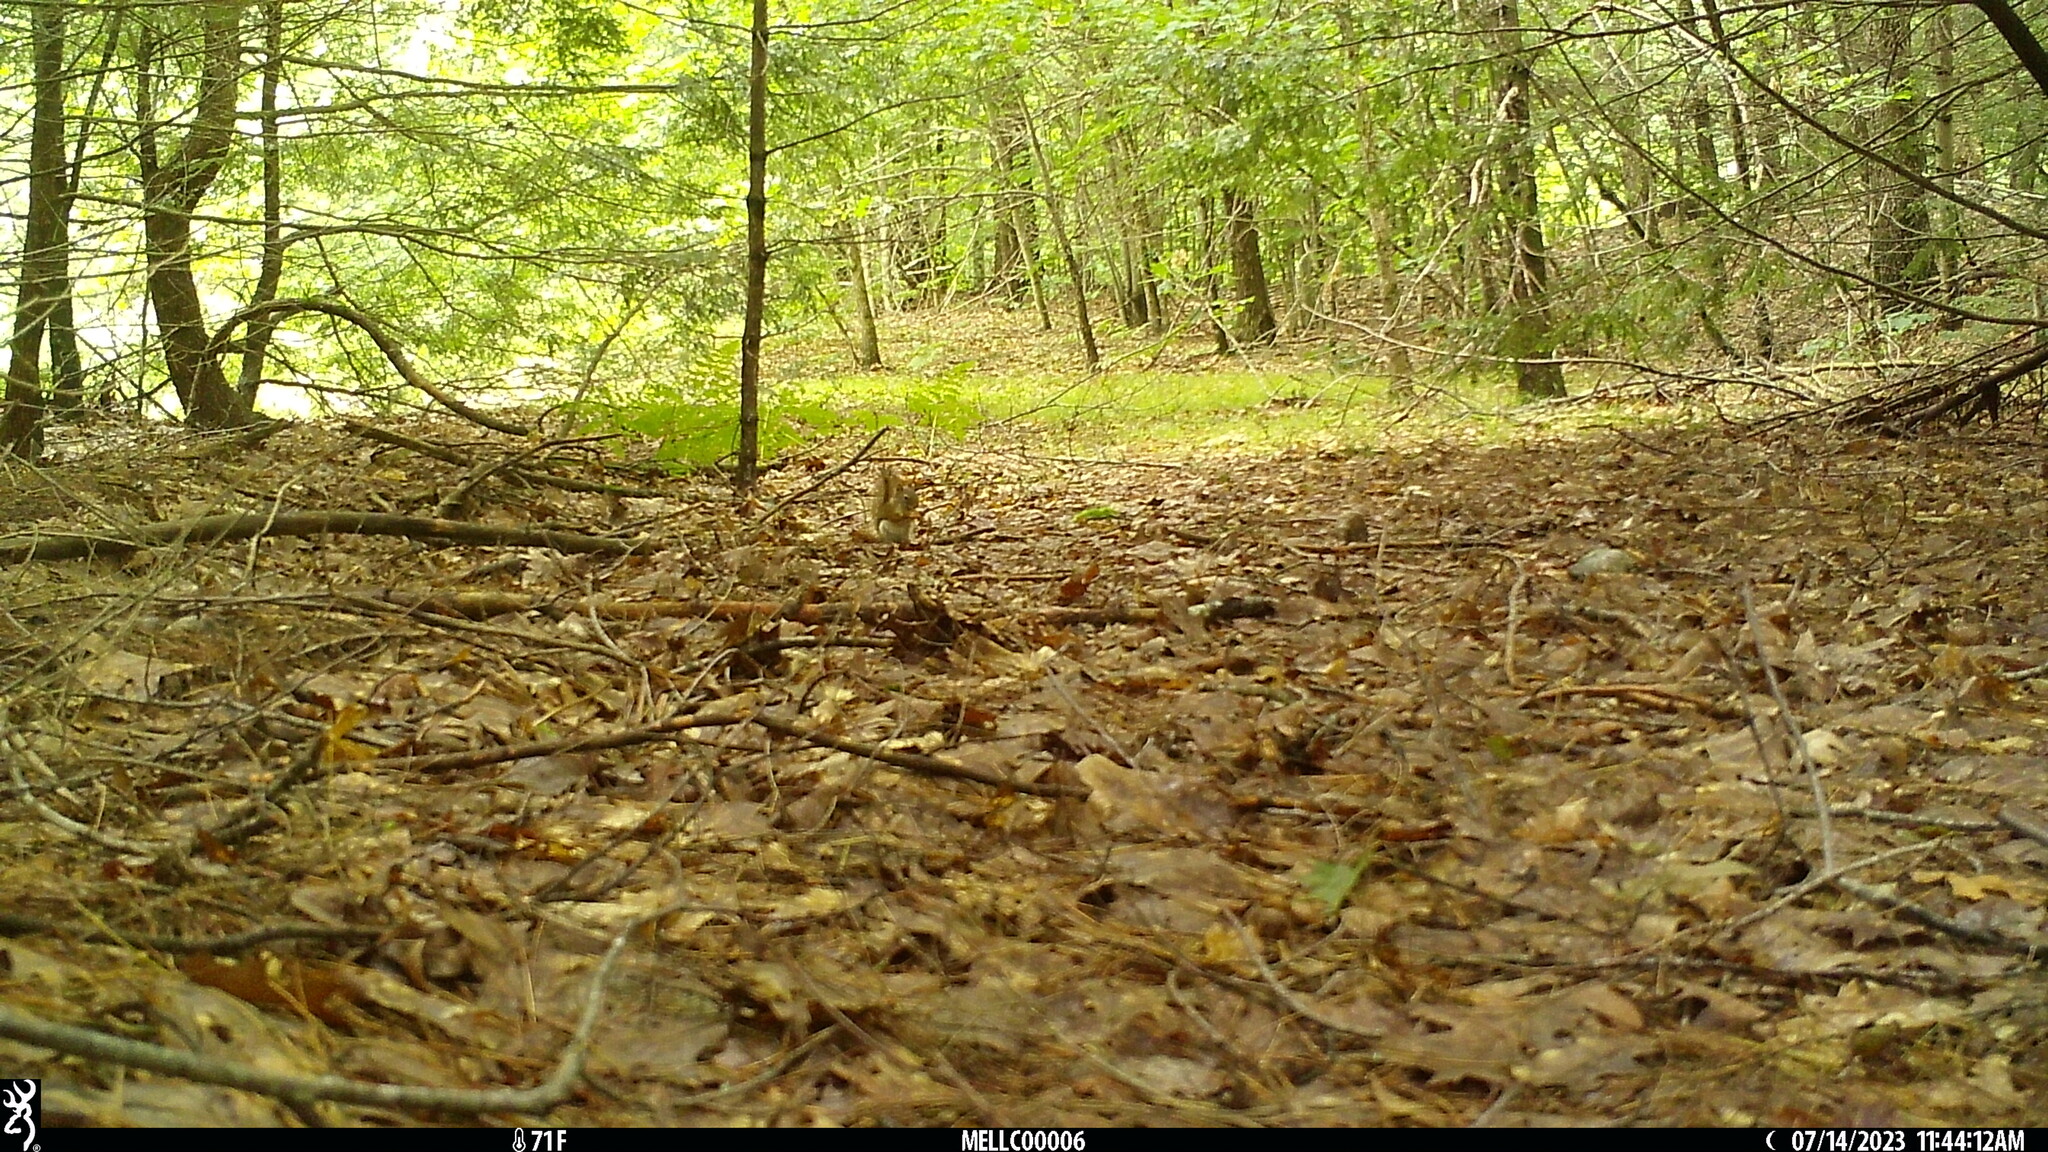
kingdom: Animalia
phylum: Chordata
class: Mammalia
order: Rodentia
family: Sciuridae
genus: Tamiasciurus
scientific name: Tamiasciurus hudsonicus
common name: Red squirrel
